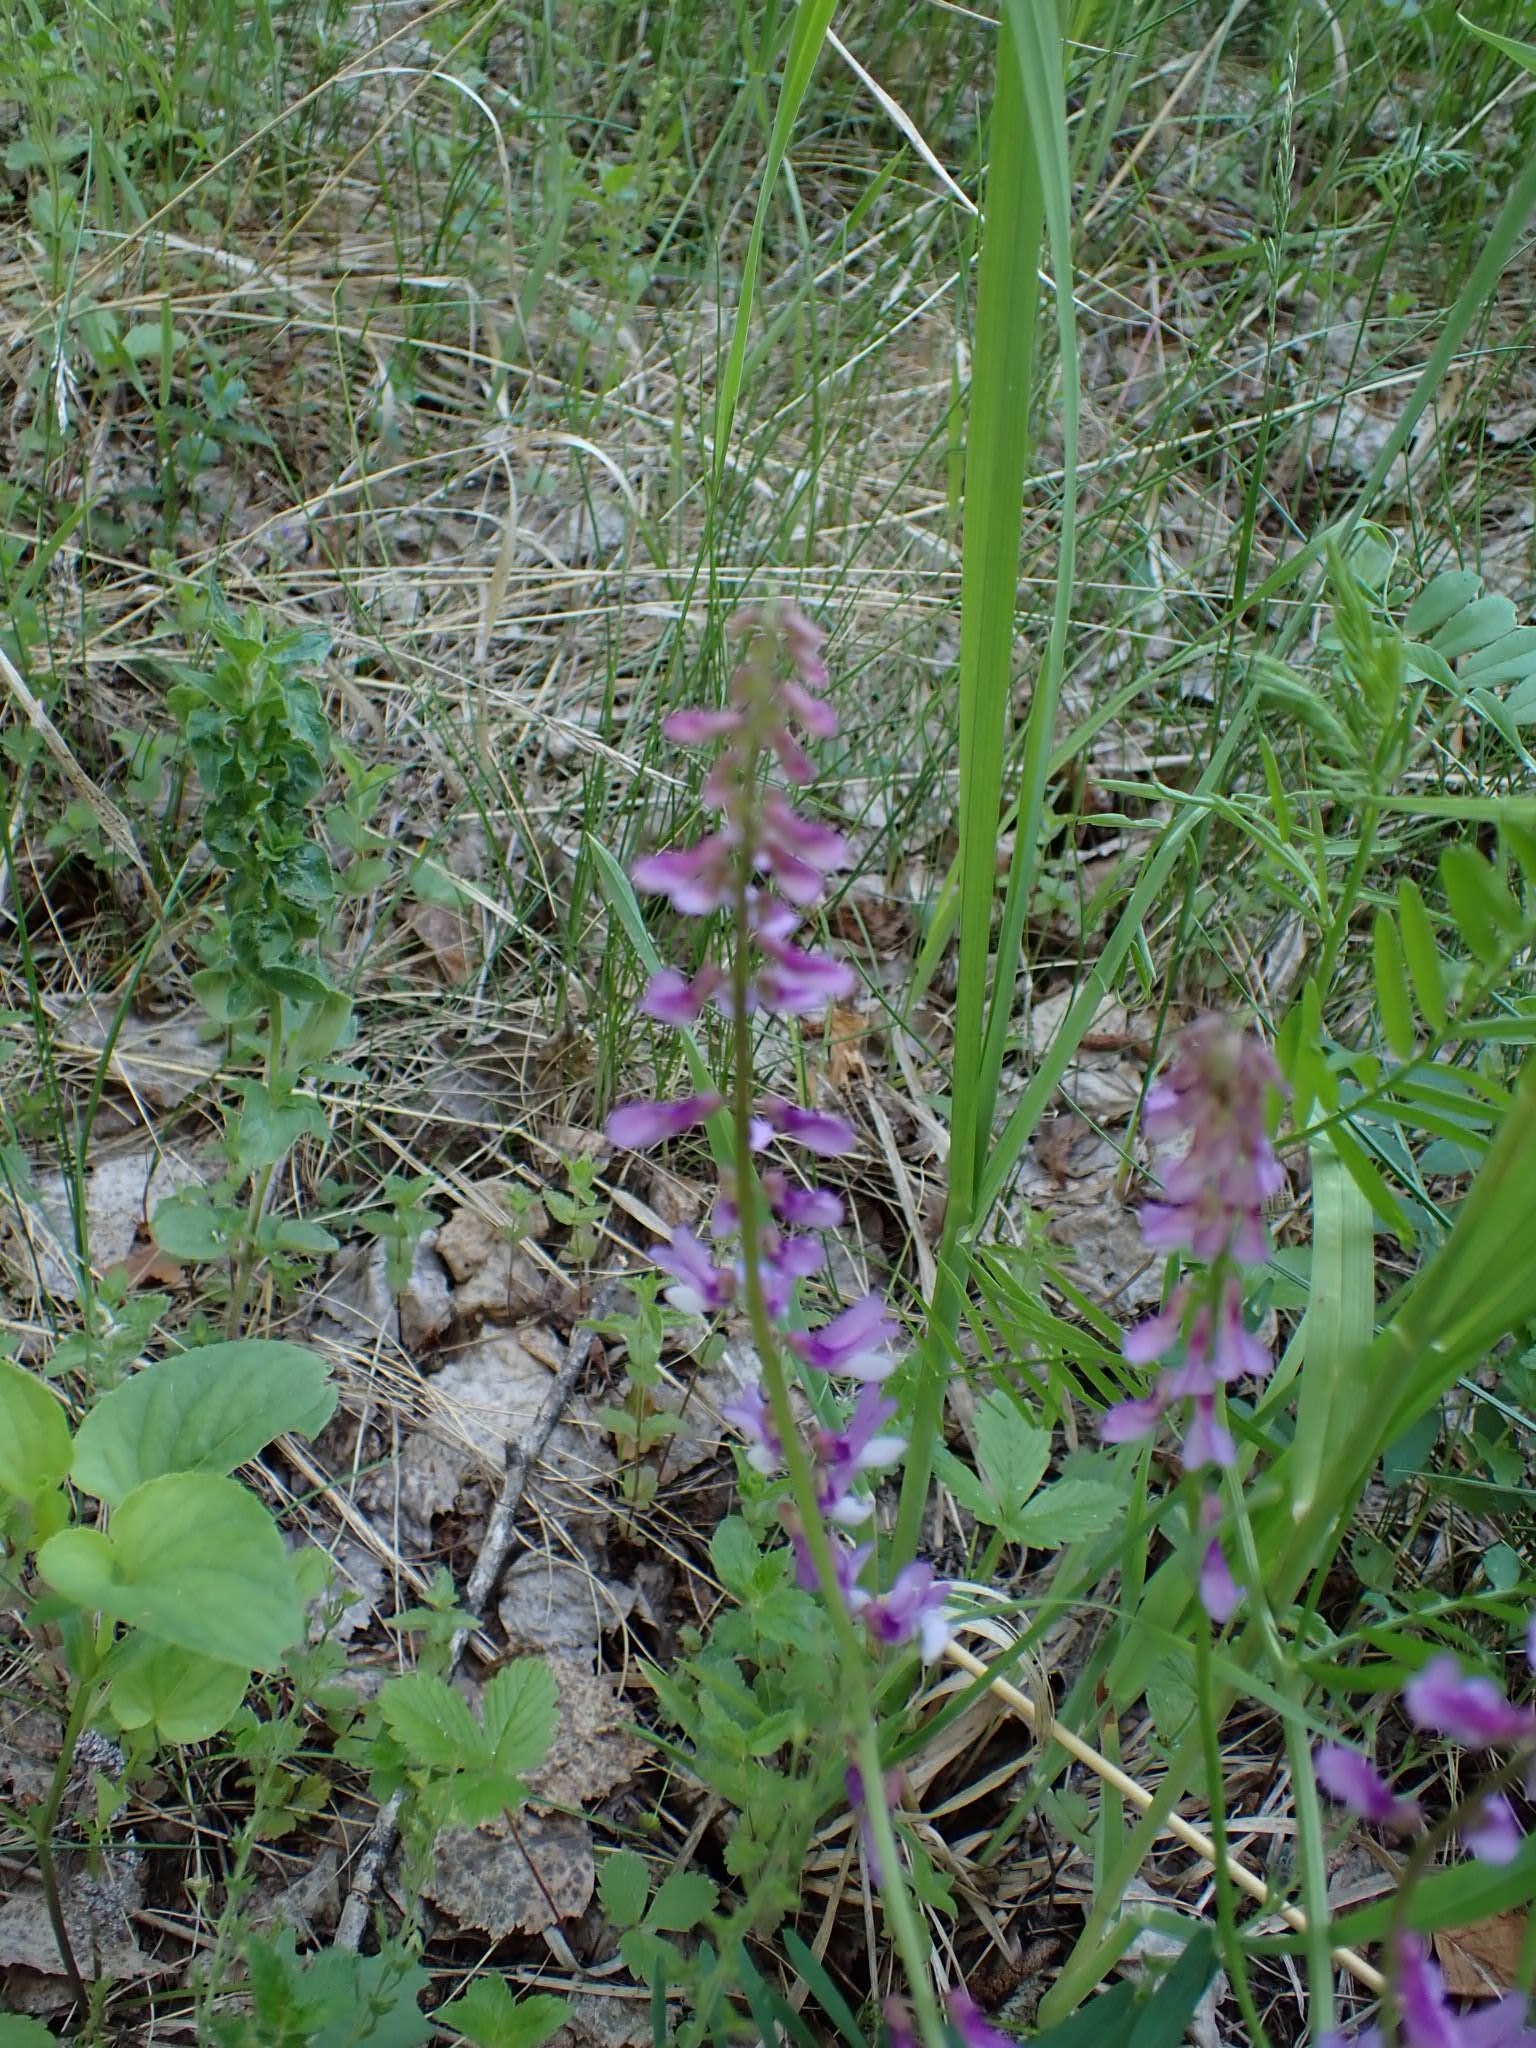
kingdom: Plantae
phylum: Tracheophyta
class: Magnoliopsida
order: Fabales
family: Fabaceae
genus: Vicia
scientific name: Vicia tenuifolia
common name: Fine-leaved vetch
